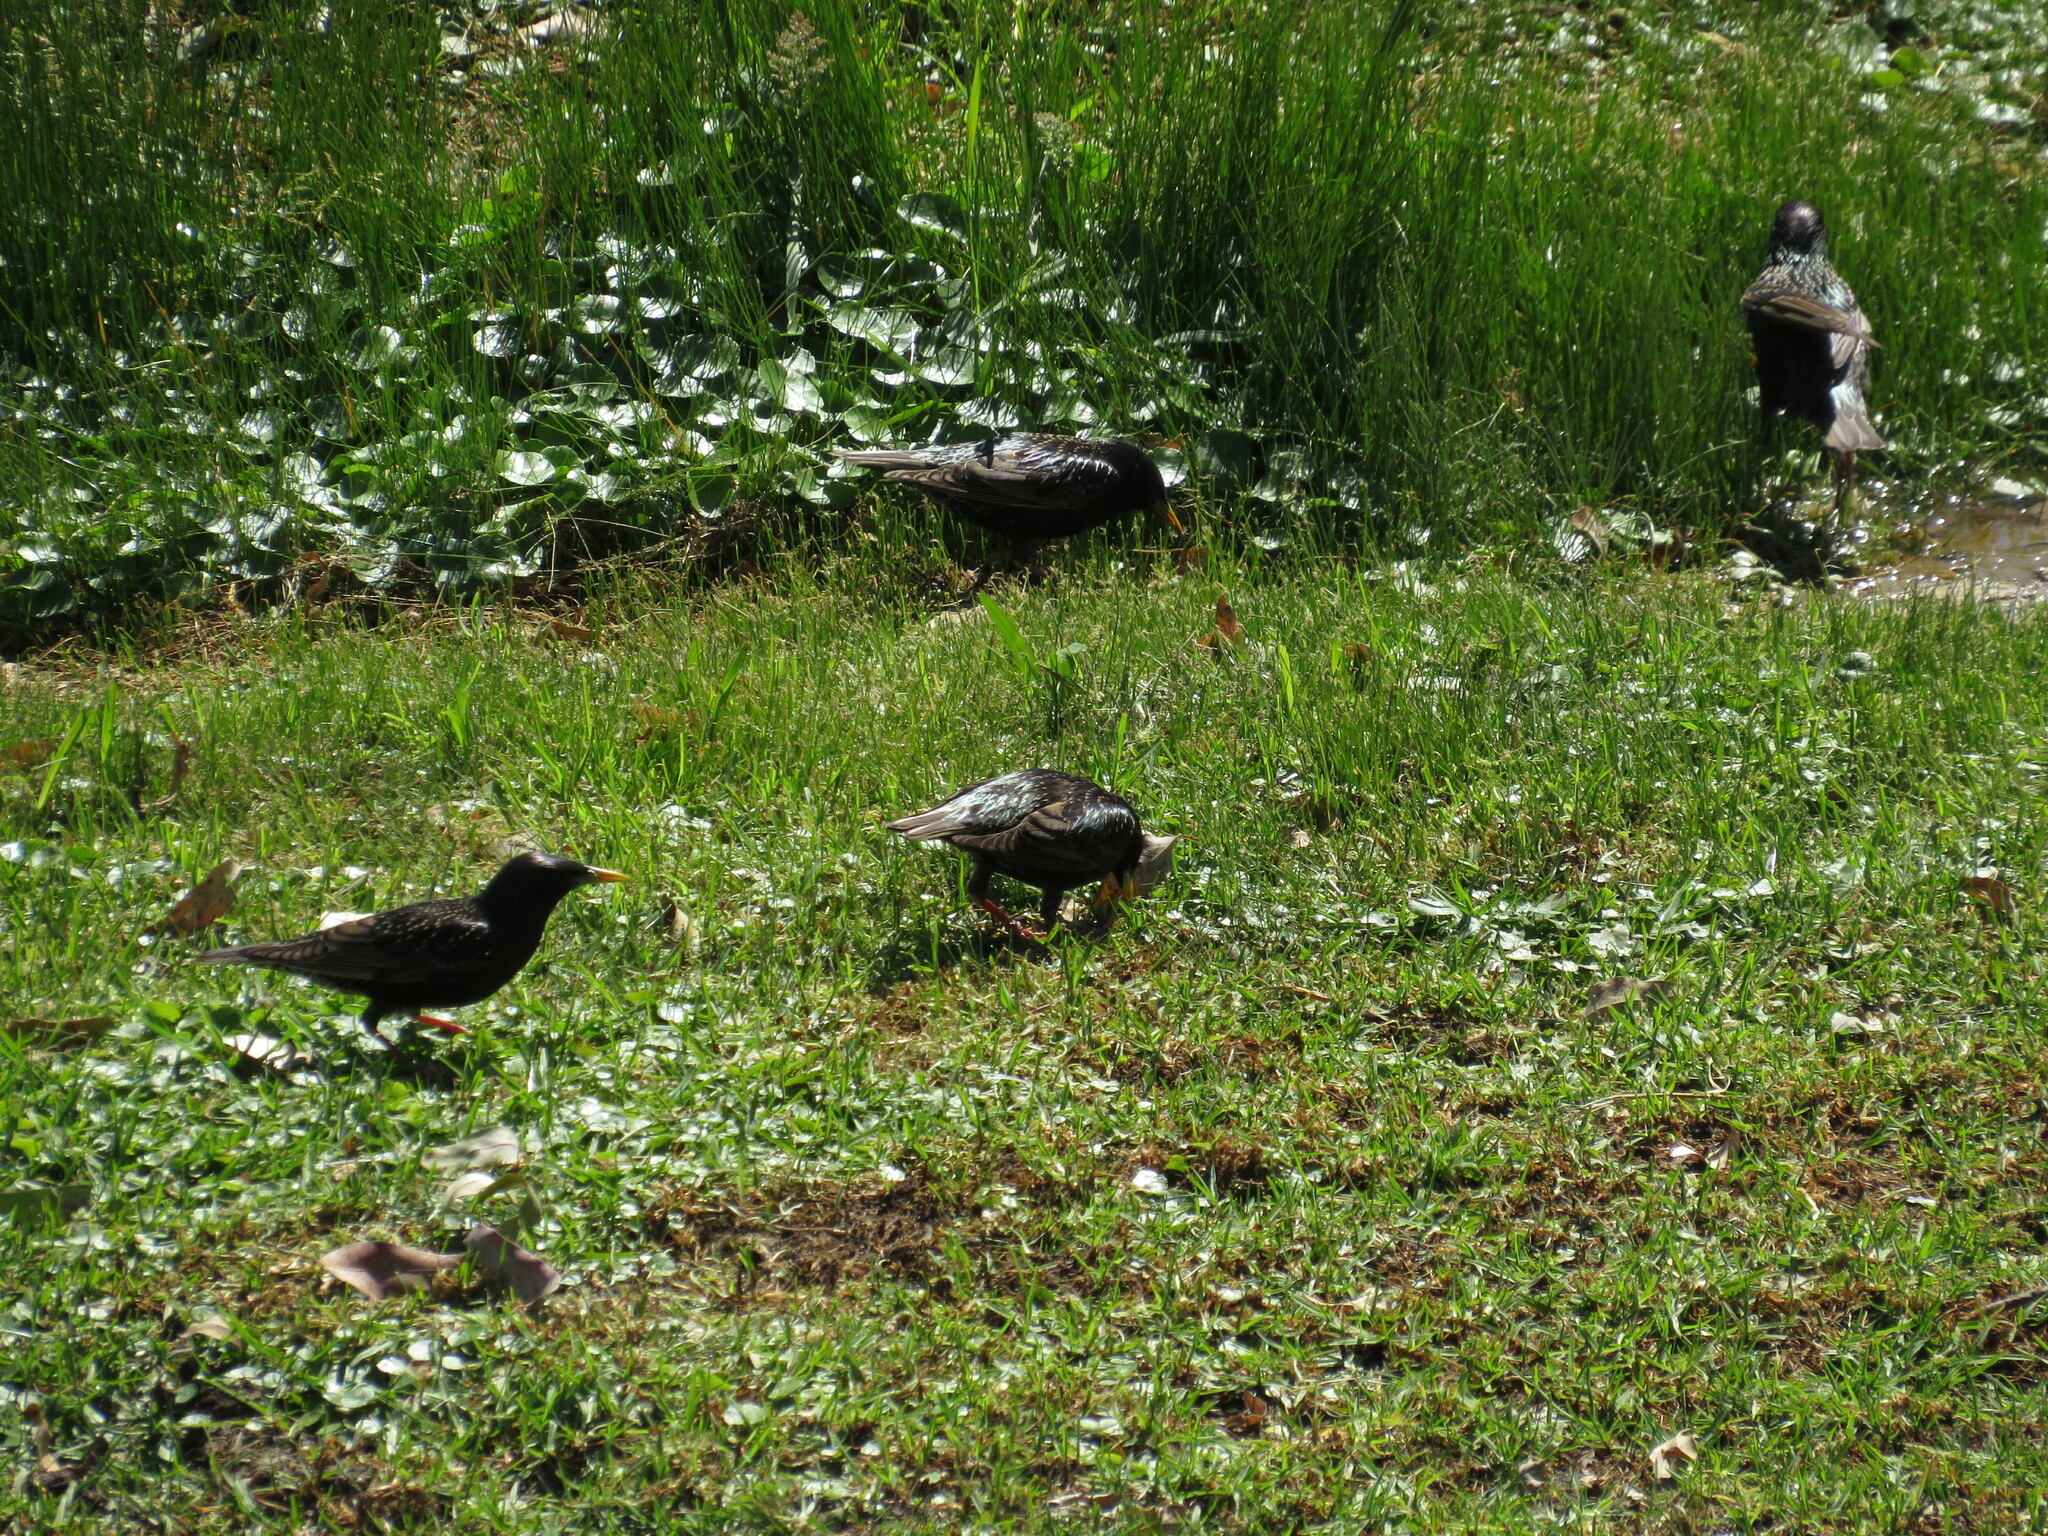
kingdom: Animalia
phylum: Chordata
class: Aves
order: Passeriformes
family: Sturnidae
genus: Sturnus
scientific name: Sturnus vulgaris
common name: Common starling
